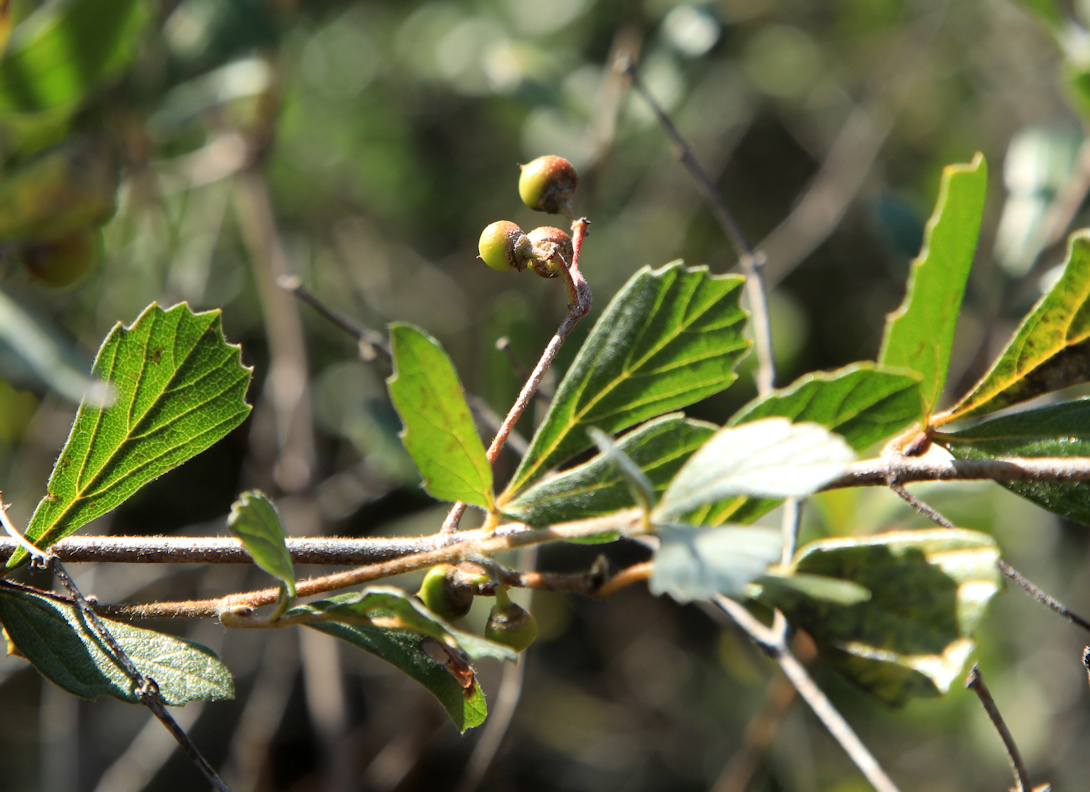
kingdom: Plantae
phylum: Tracheophyta
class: Magnoliopsida
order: Vitales
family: Vitaceae
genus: Rhoicissus
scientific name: Rhoicissus tridentata
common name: Common forest grape
